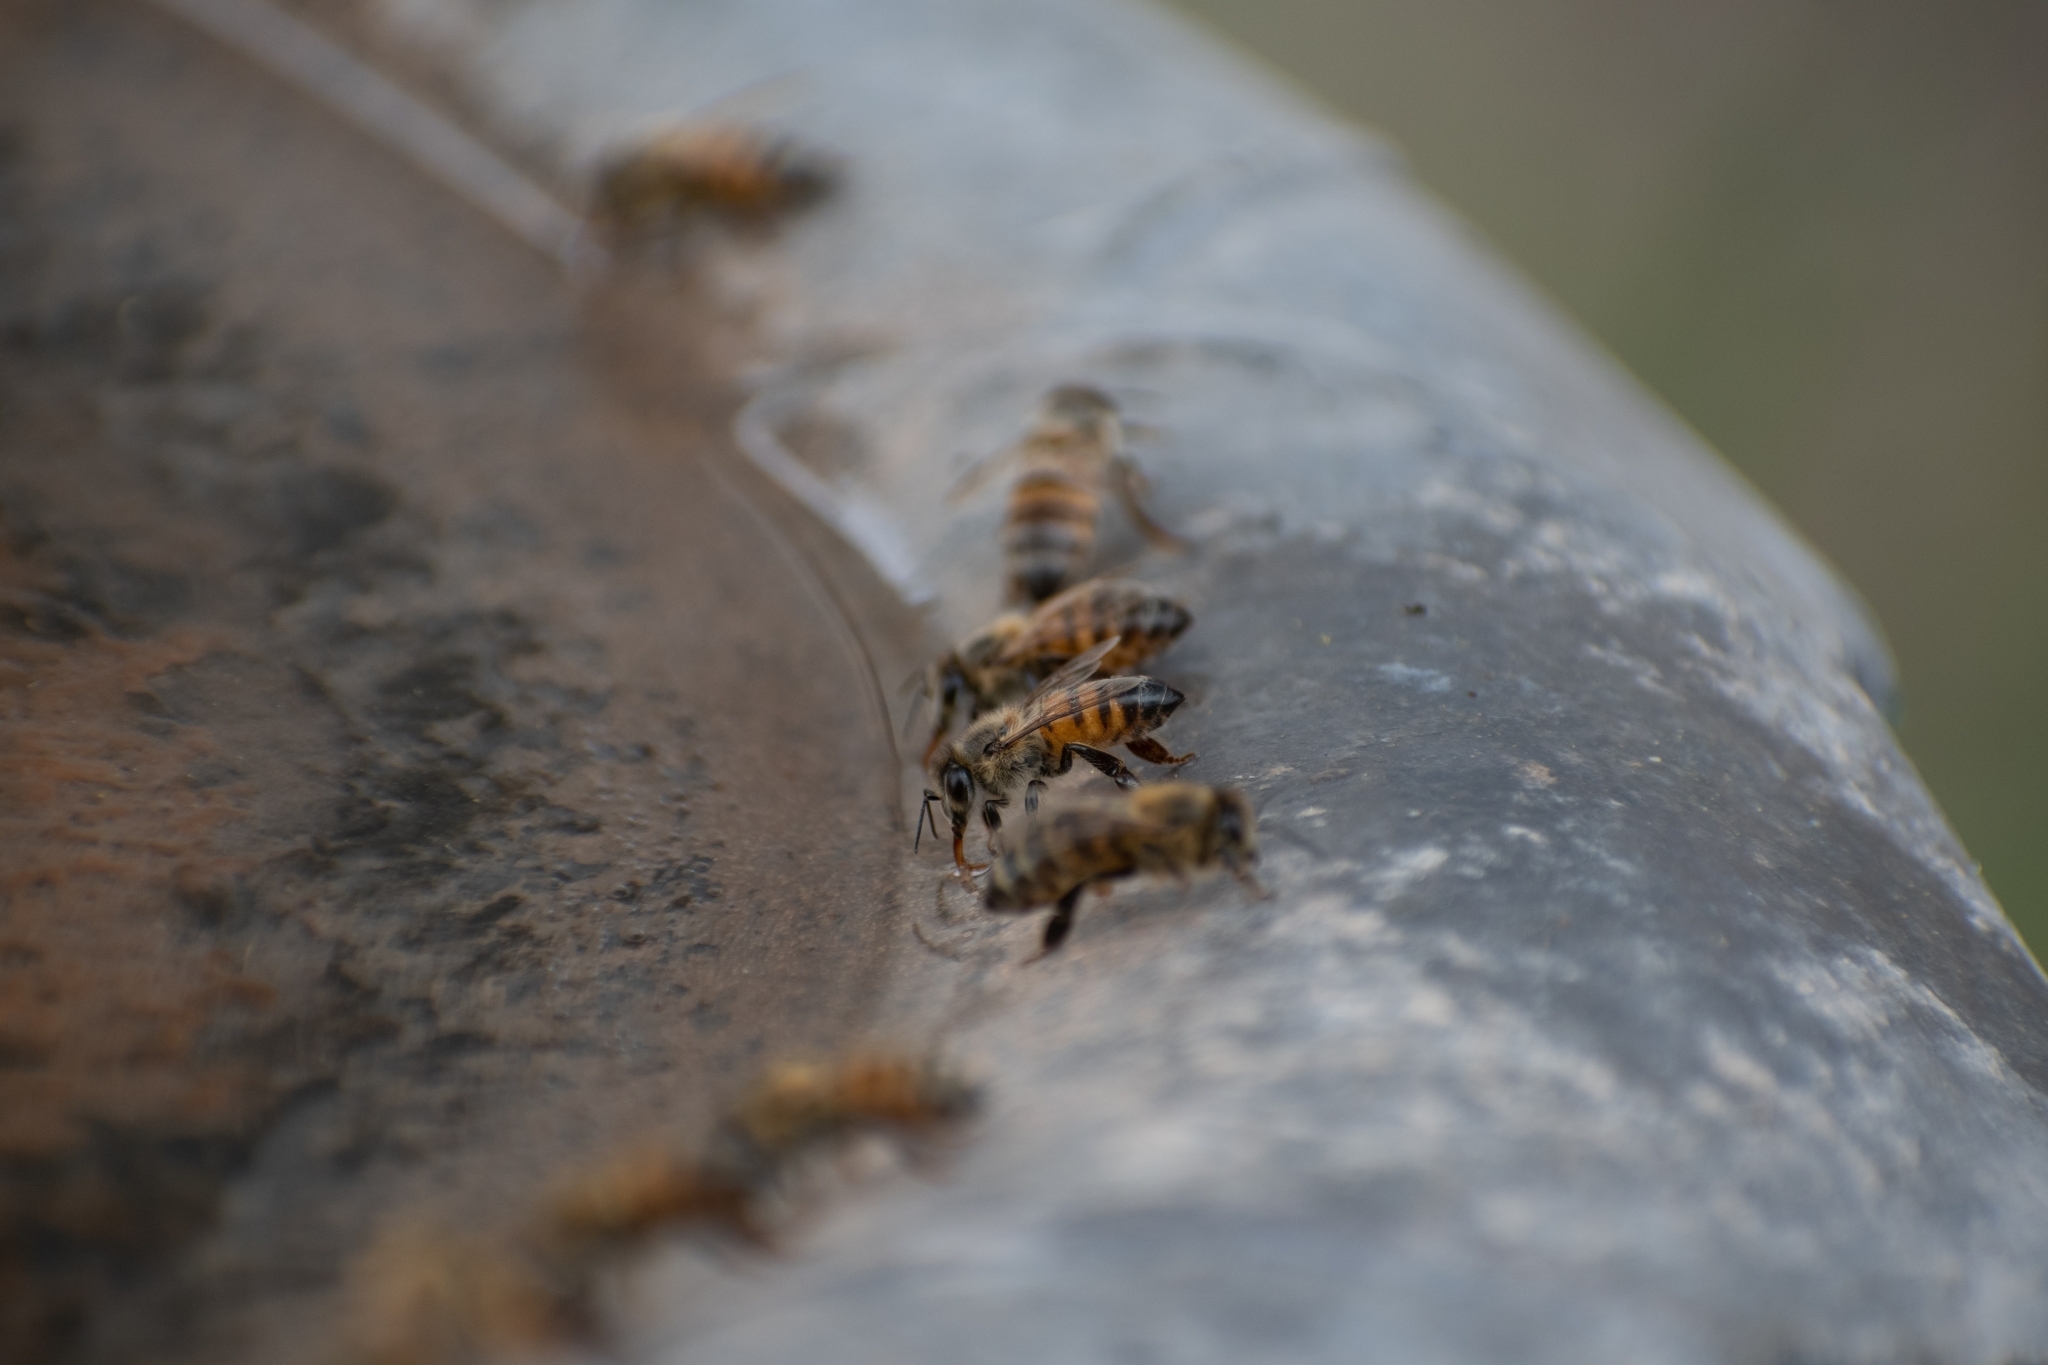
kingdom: Animalia
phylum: Arthropoda
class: Insecta
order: Hymenoptera
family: Apidae
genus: Apis
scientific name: Apis mellifera
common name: Honey bee
